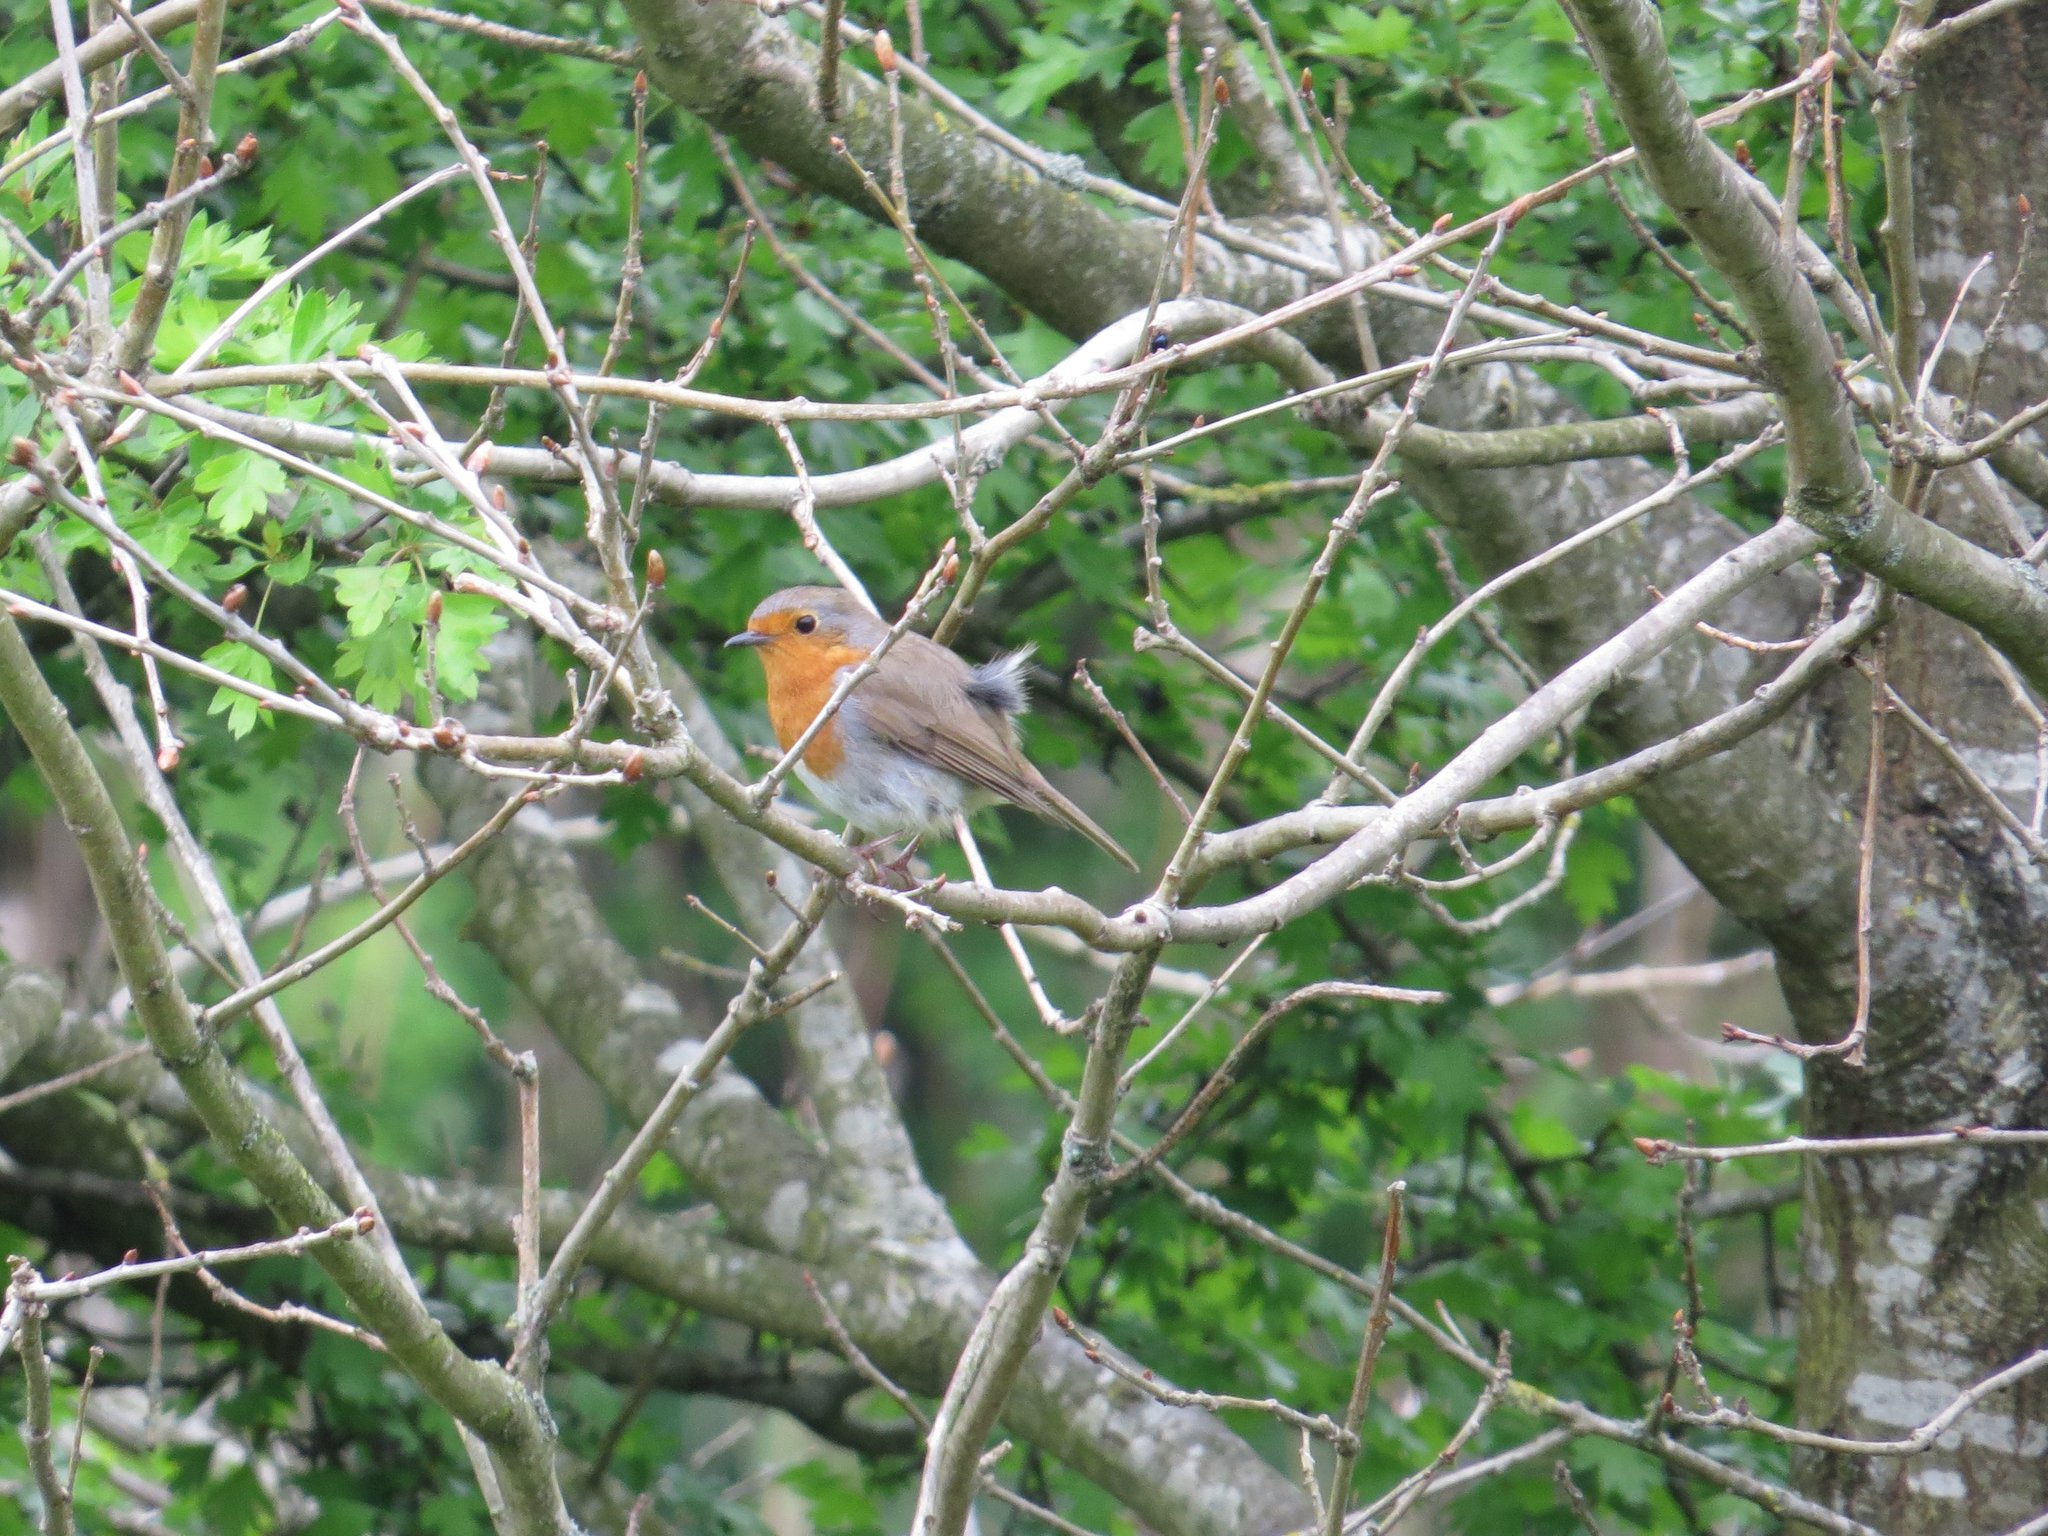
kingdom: Animalia
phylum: Chordata
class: Aves
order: Passeriformes
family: Muscicapidae
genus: Erithacus
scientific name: Erithacus rubecula
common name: European robin
